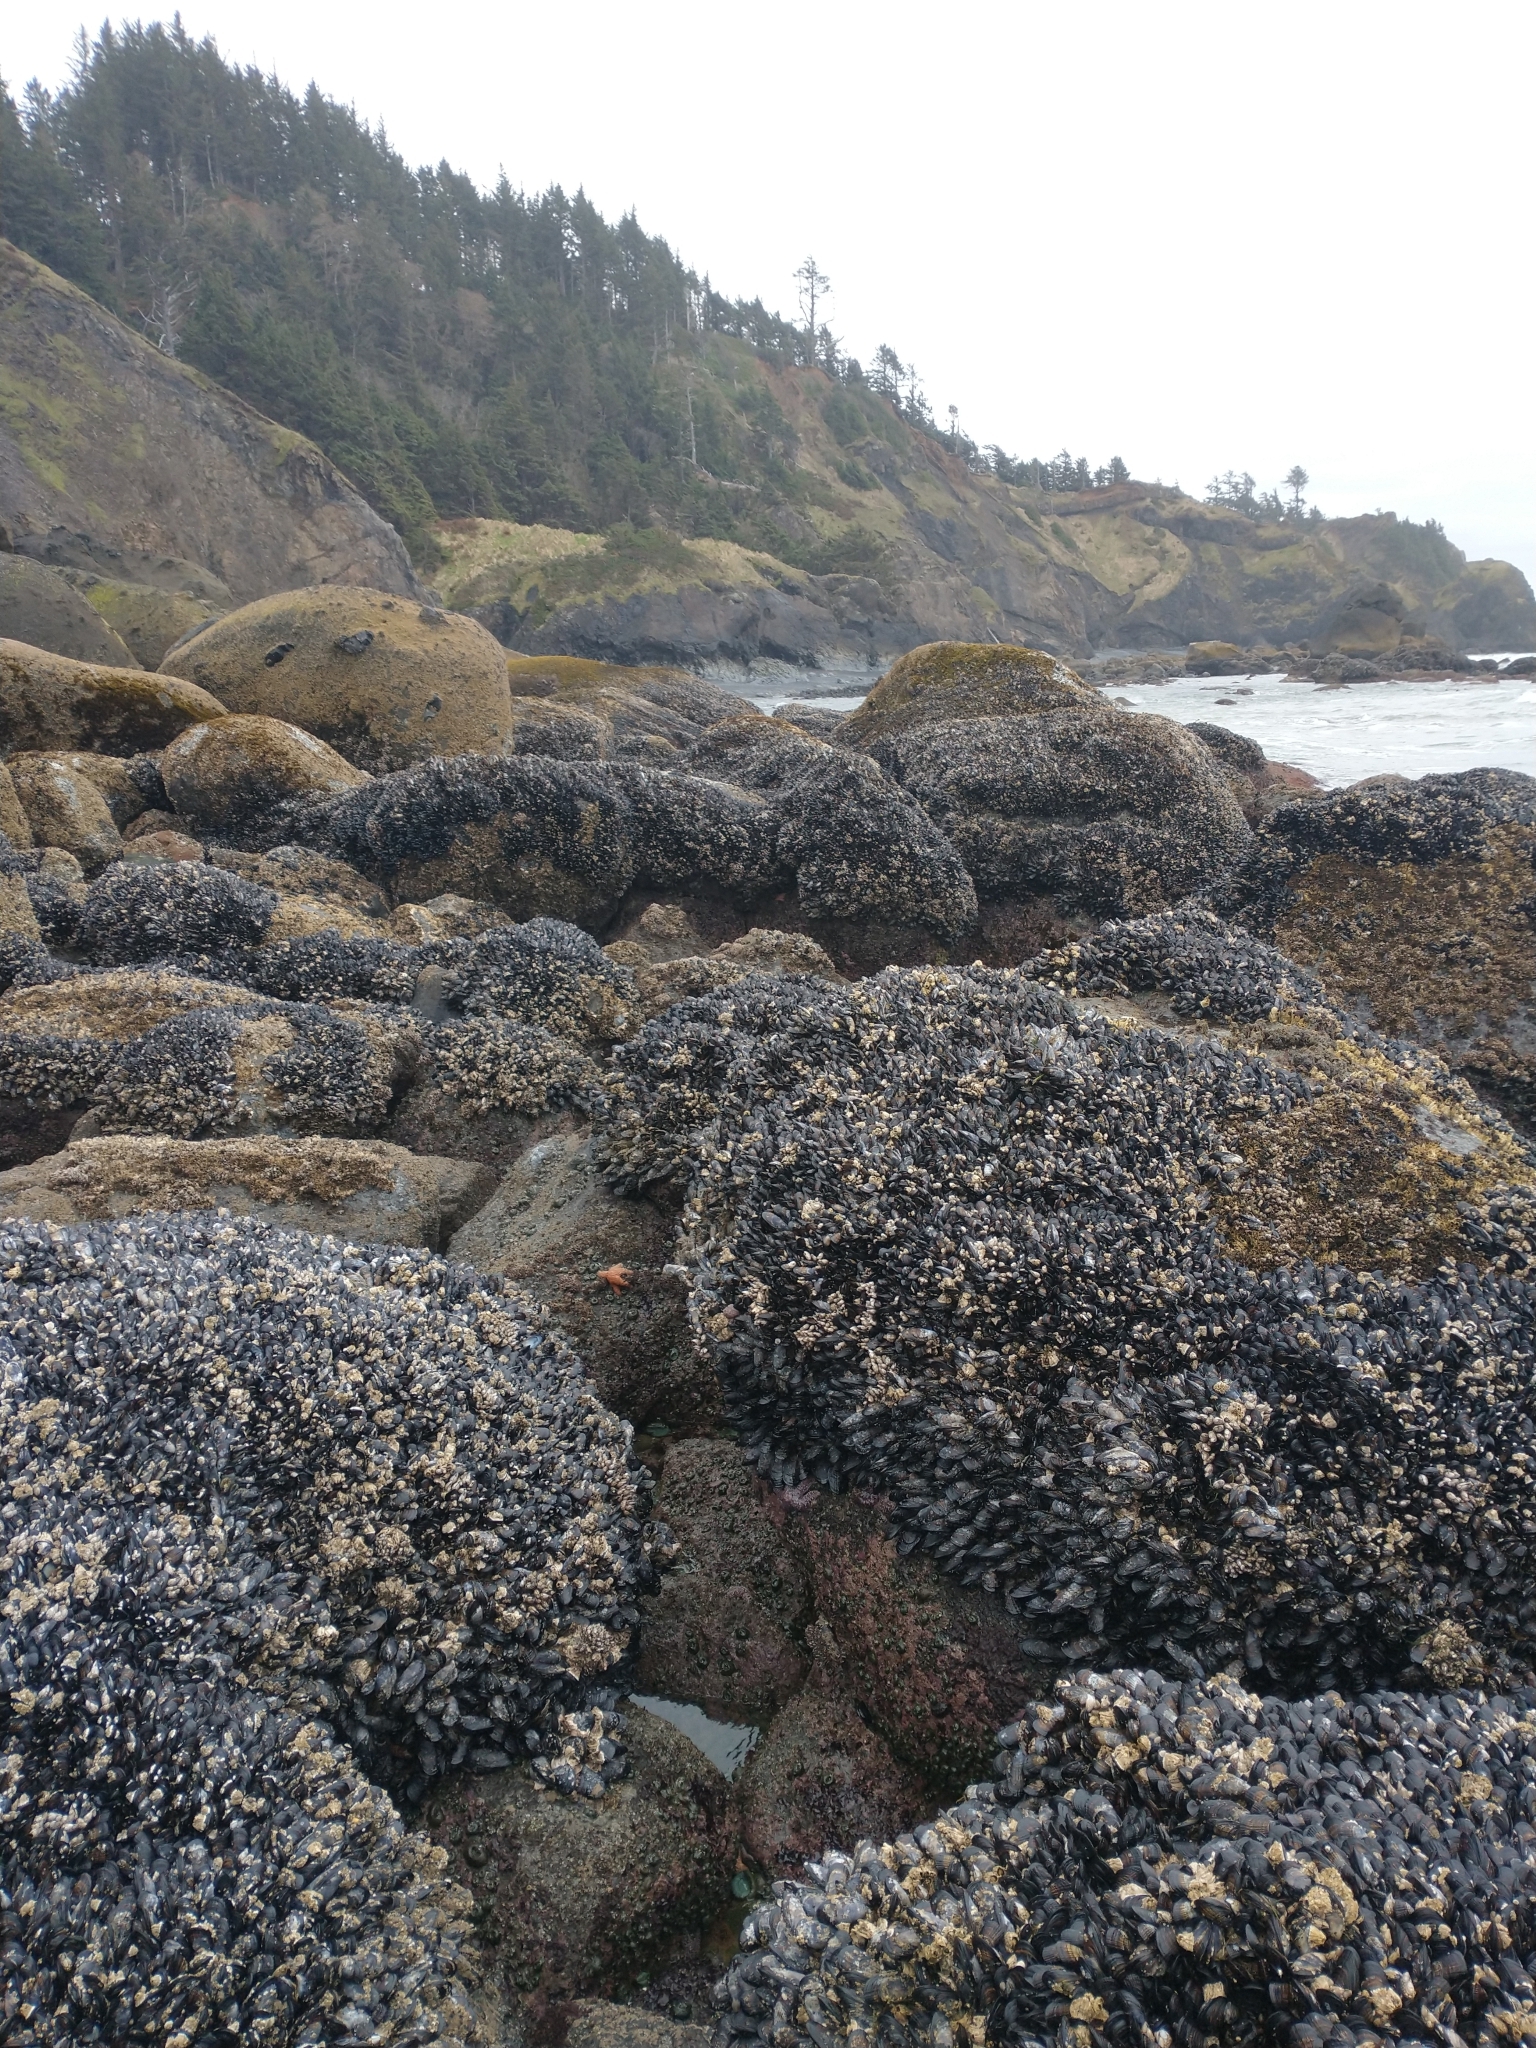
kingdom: Animalia
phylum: Mollusca
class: Bivalvia
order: Mytilida
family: Mytilidae
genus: Mytilus
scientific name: Mytilus californianus
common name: California mussel
